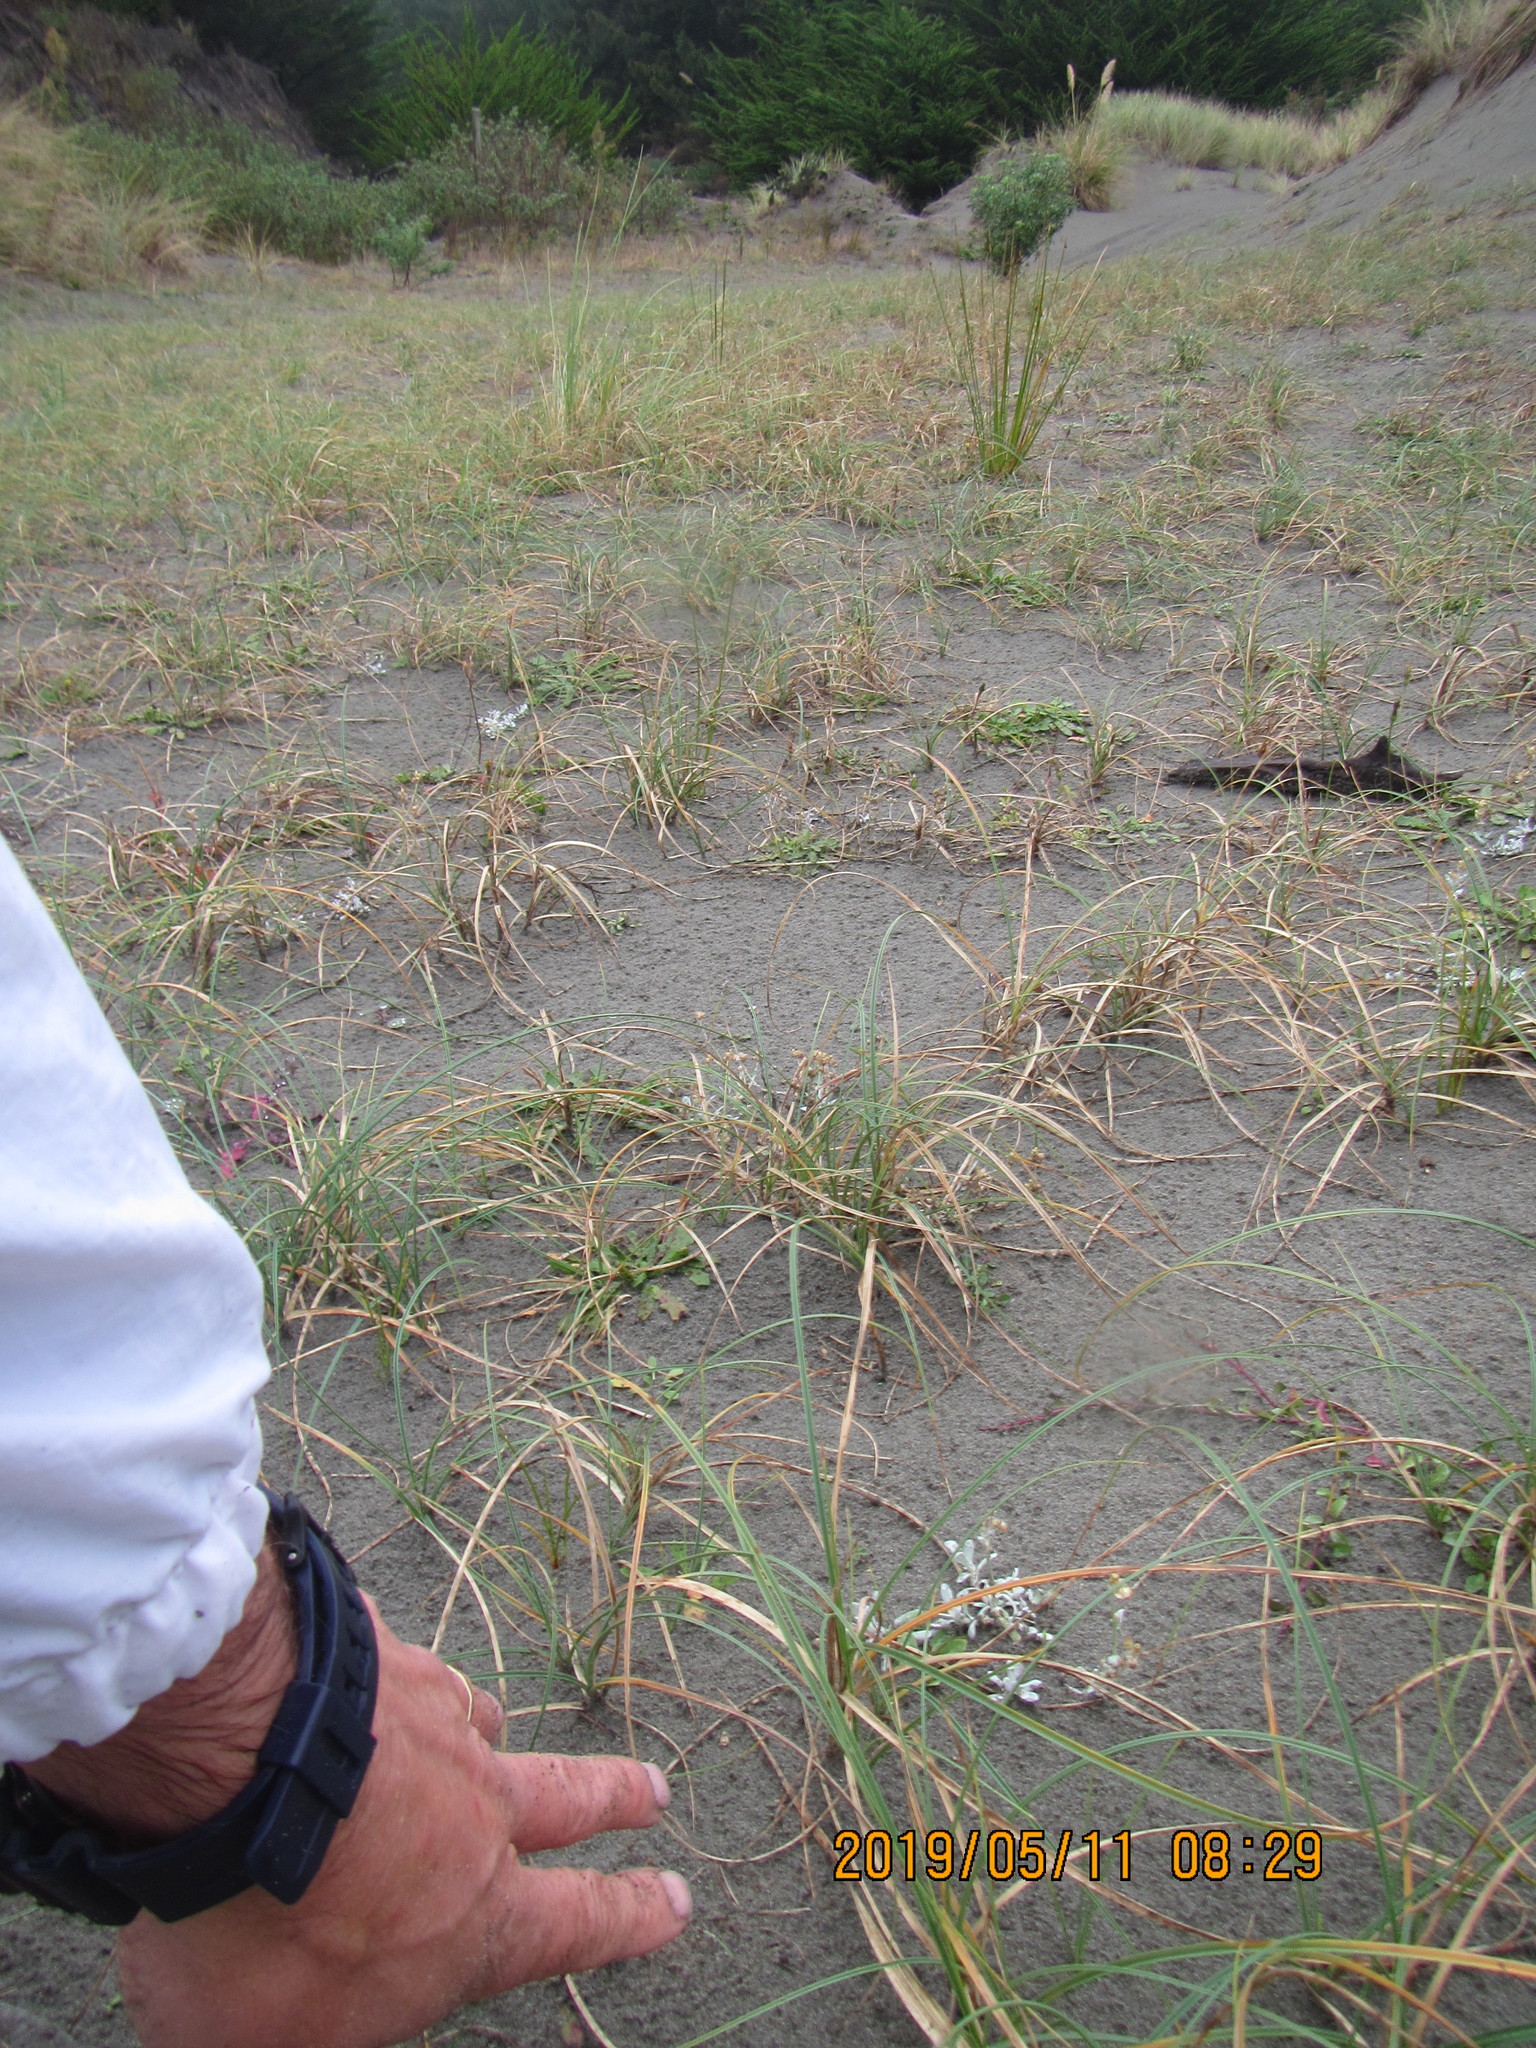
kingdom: Plantae
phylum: Tracheophyta
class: Magnoliopsida
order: Asterales
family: Asteraceae
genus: Helichrysum
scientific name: Helichrysum luteoalbum
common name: Daisy
